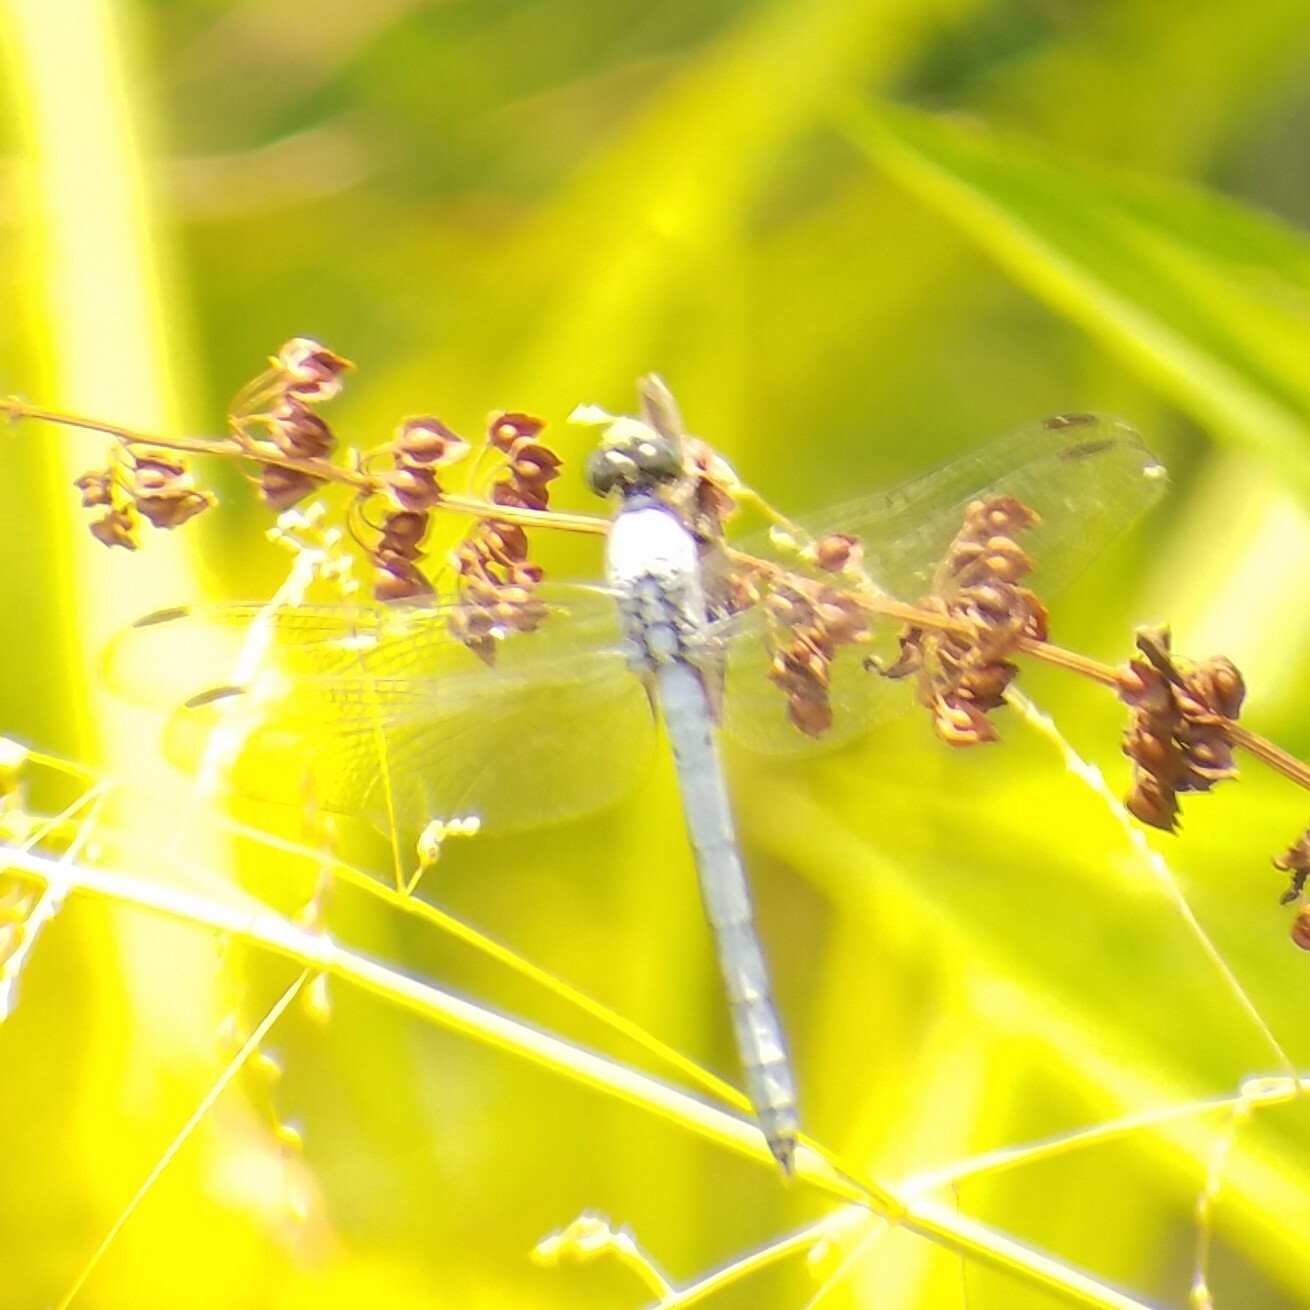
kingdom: Animalia
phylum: Arthropoda
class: Insecta
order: Odonata
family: Libellulidae
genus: Erythemis
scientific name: Erythemis simplicicollis
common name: Eastern pondhawk
